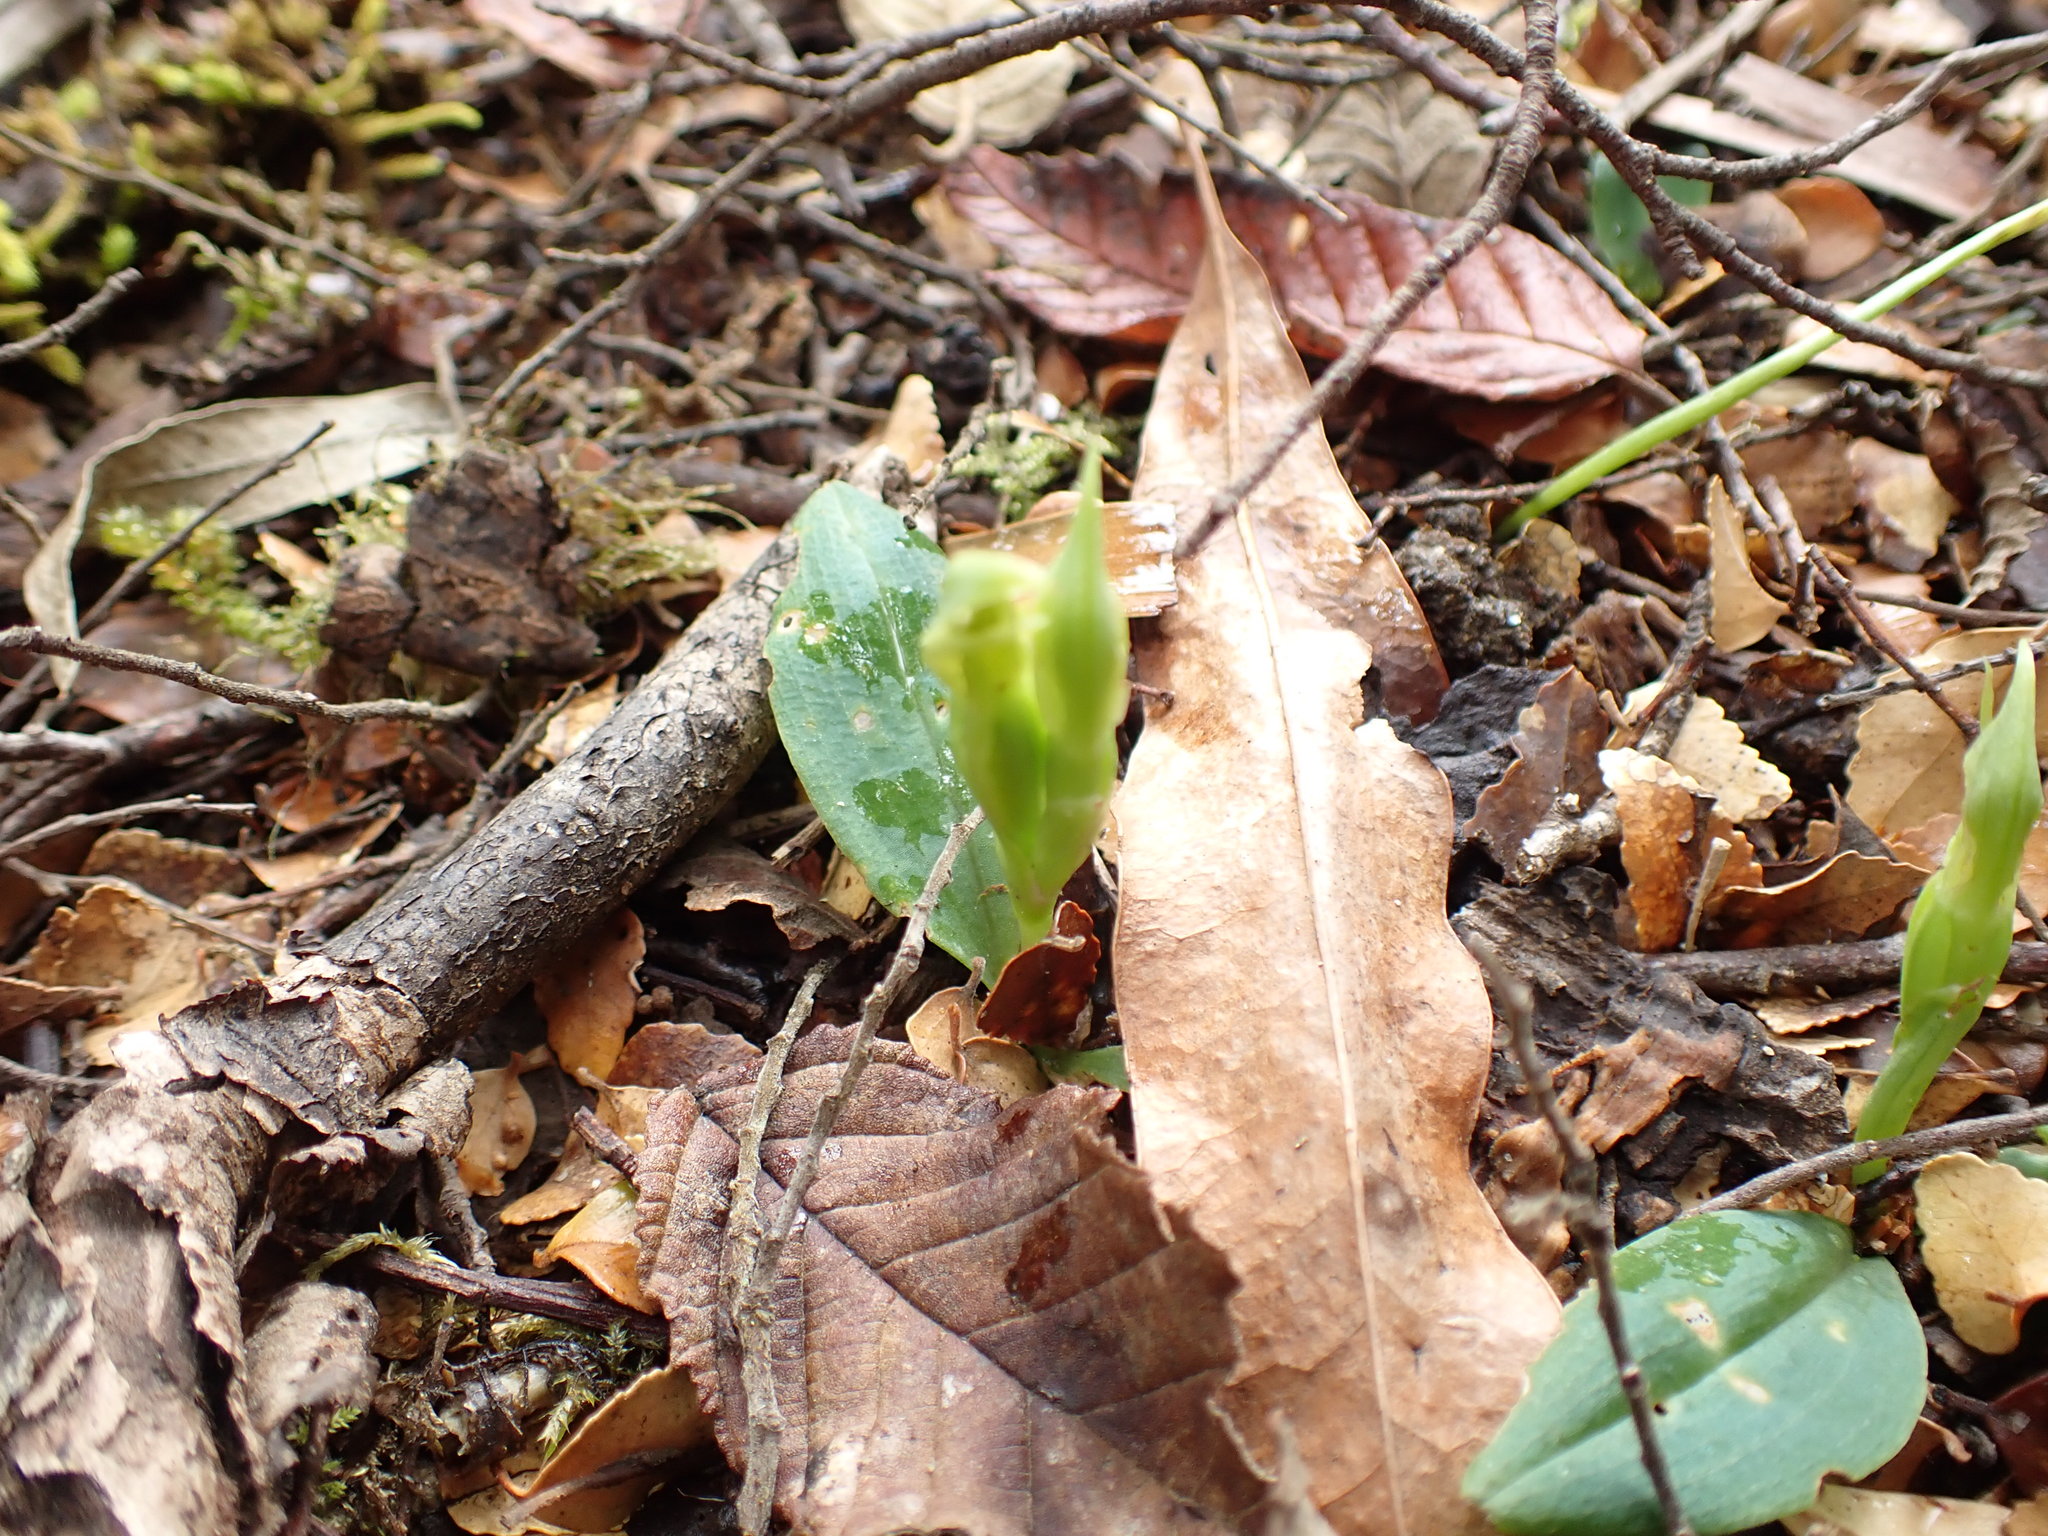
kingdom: Plantae
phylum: Tracheophyta
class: Liliopsida
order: Asparagales
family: Orchidaceae
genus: Chiloglottis
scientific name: Chiloglottis cornuta
